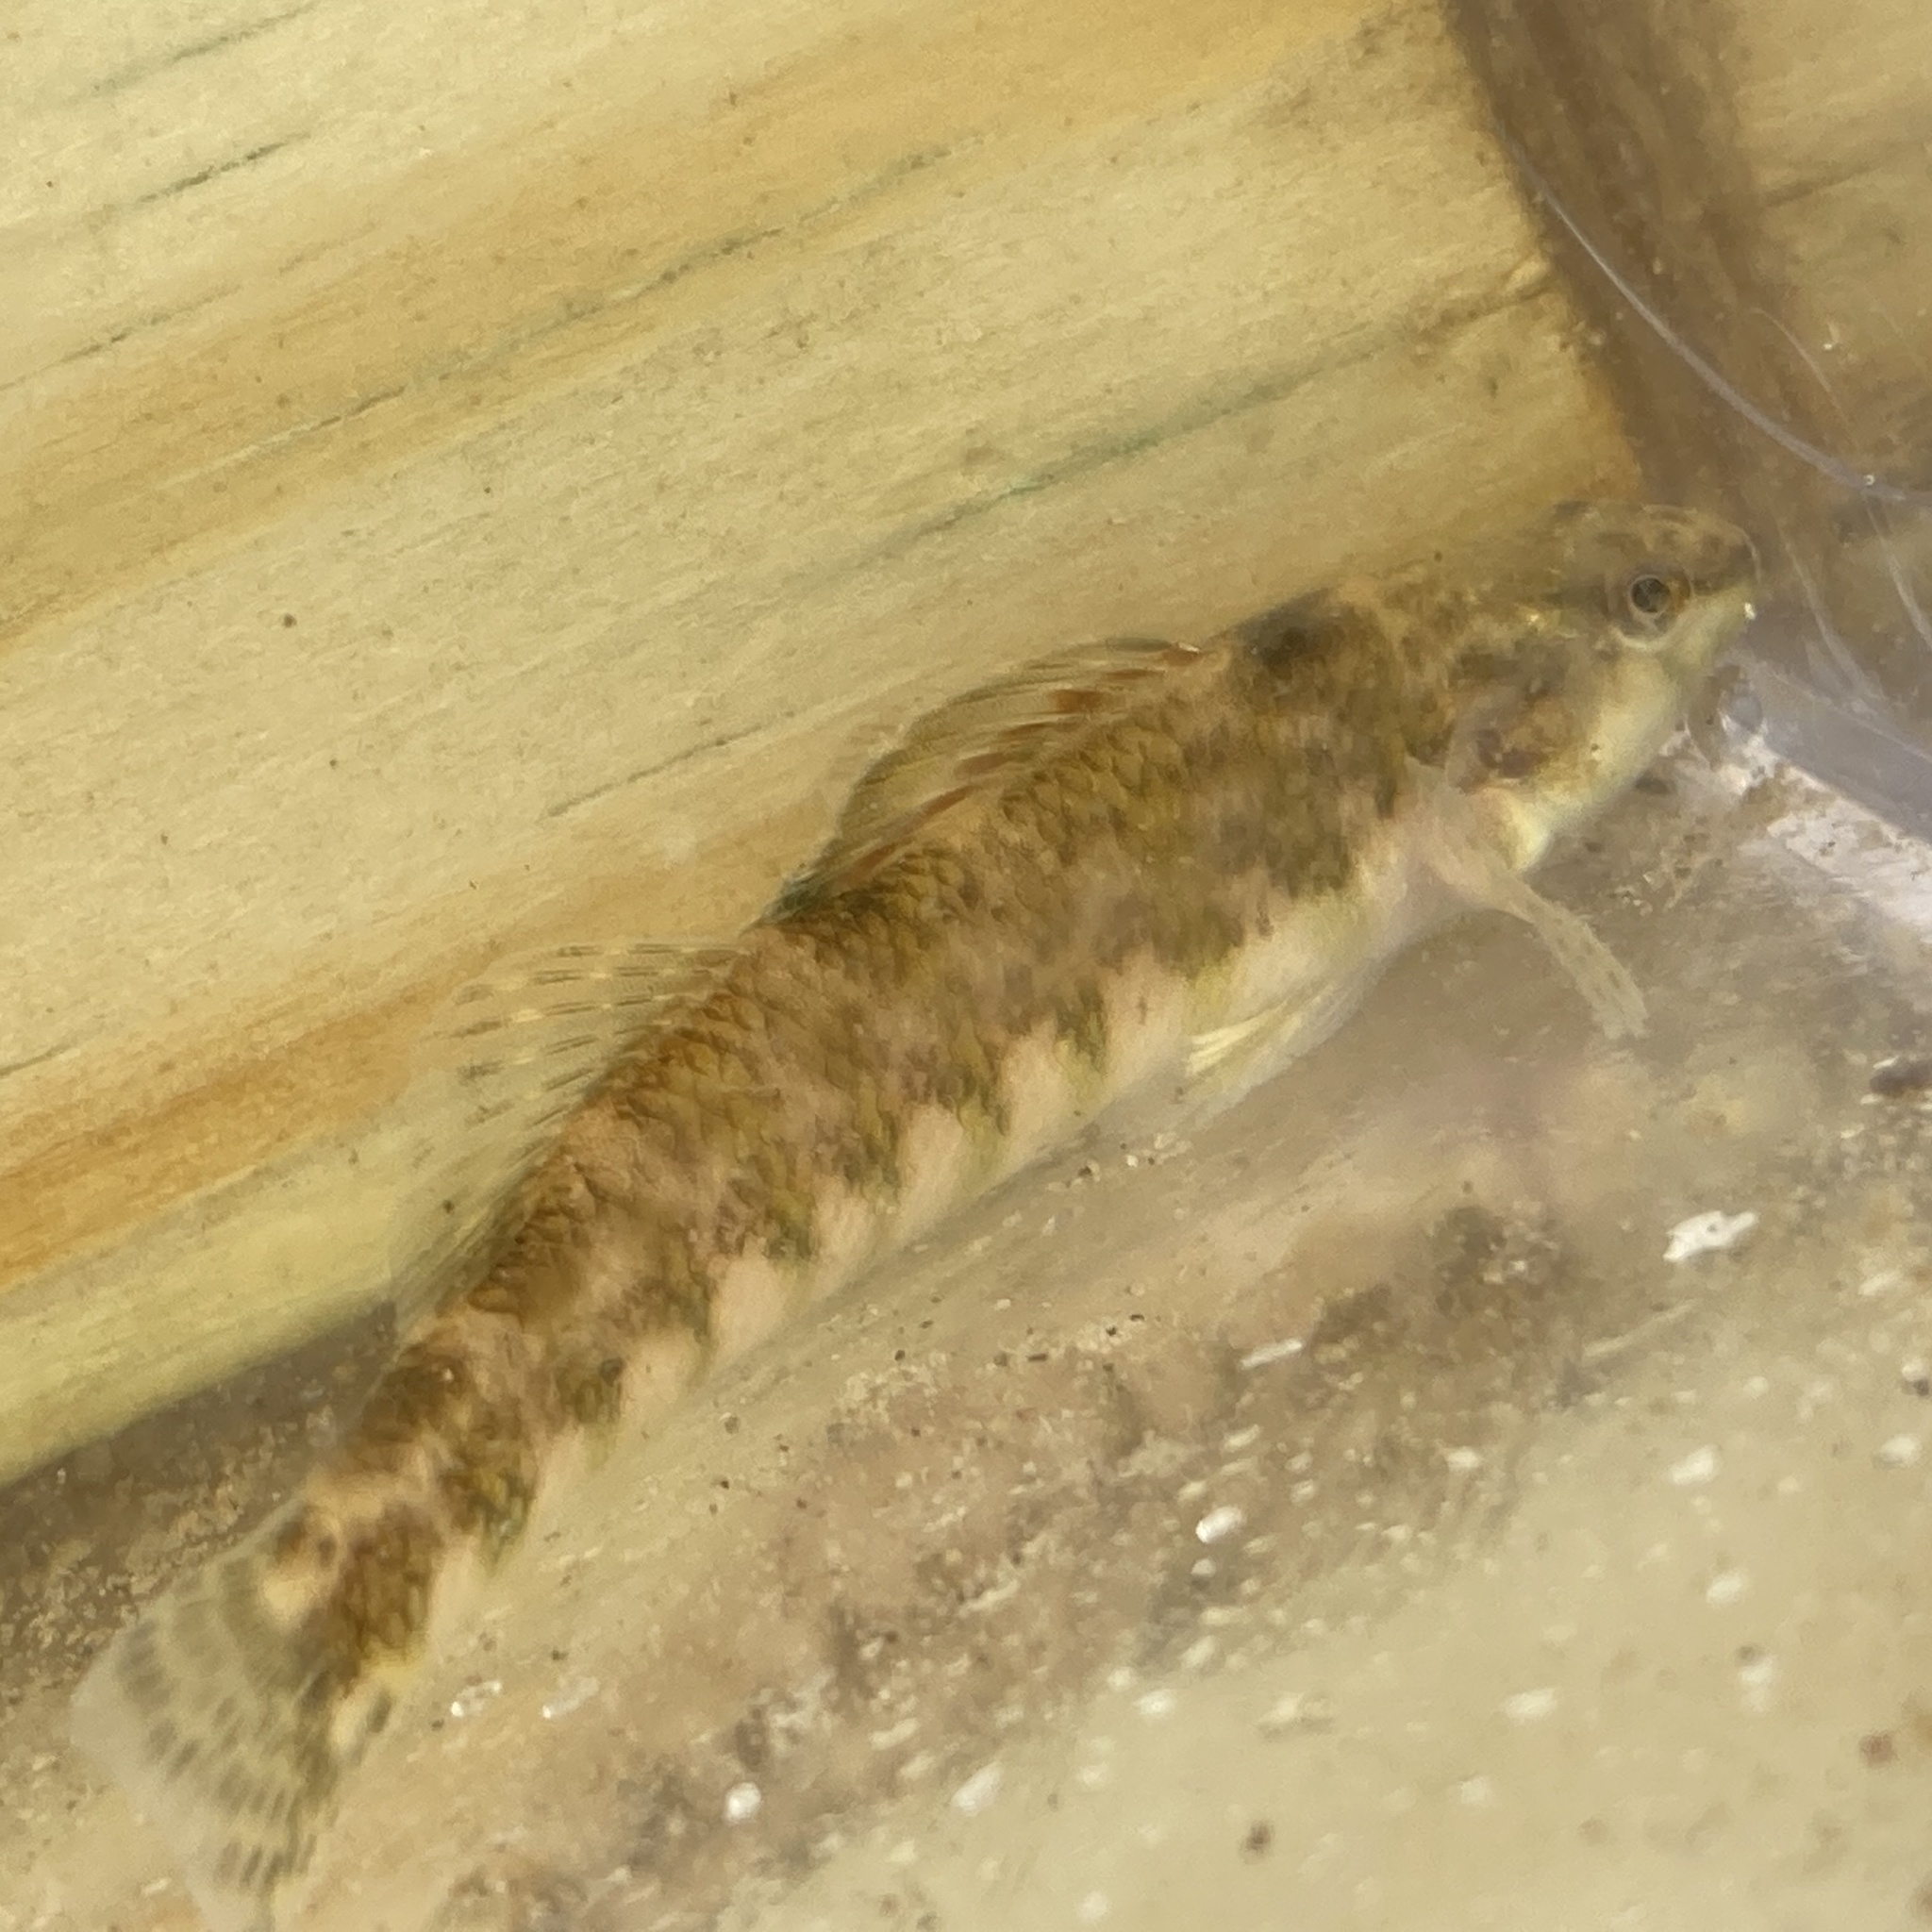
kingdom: Animalia
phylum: Chordata
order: Perciformes
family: Percidae
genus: Etheostoma
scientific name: Etheostoma zonale
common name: Banded darter
